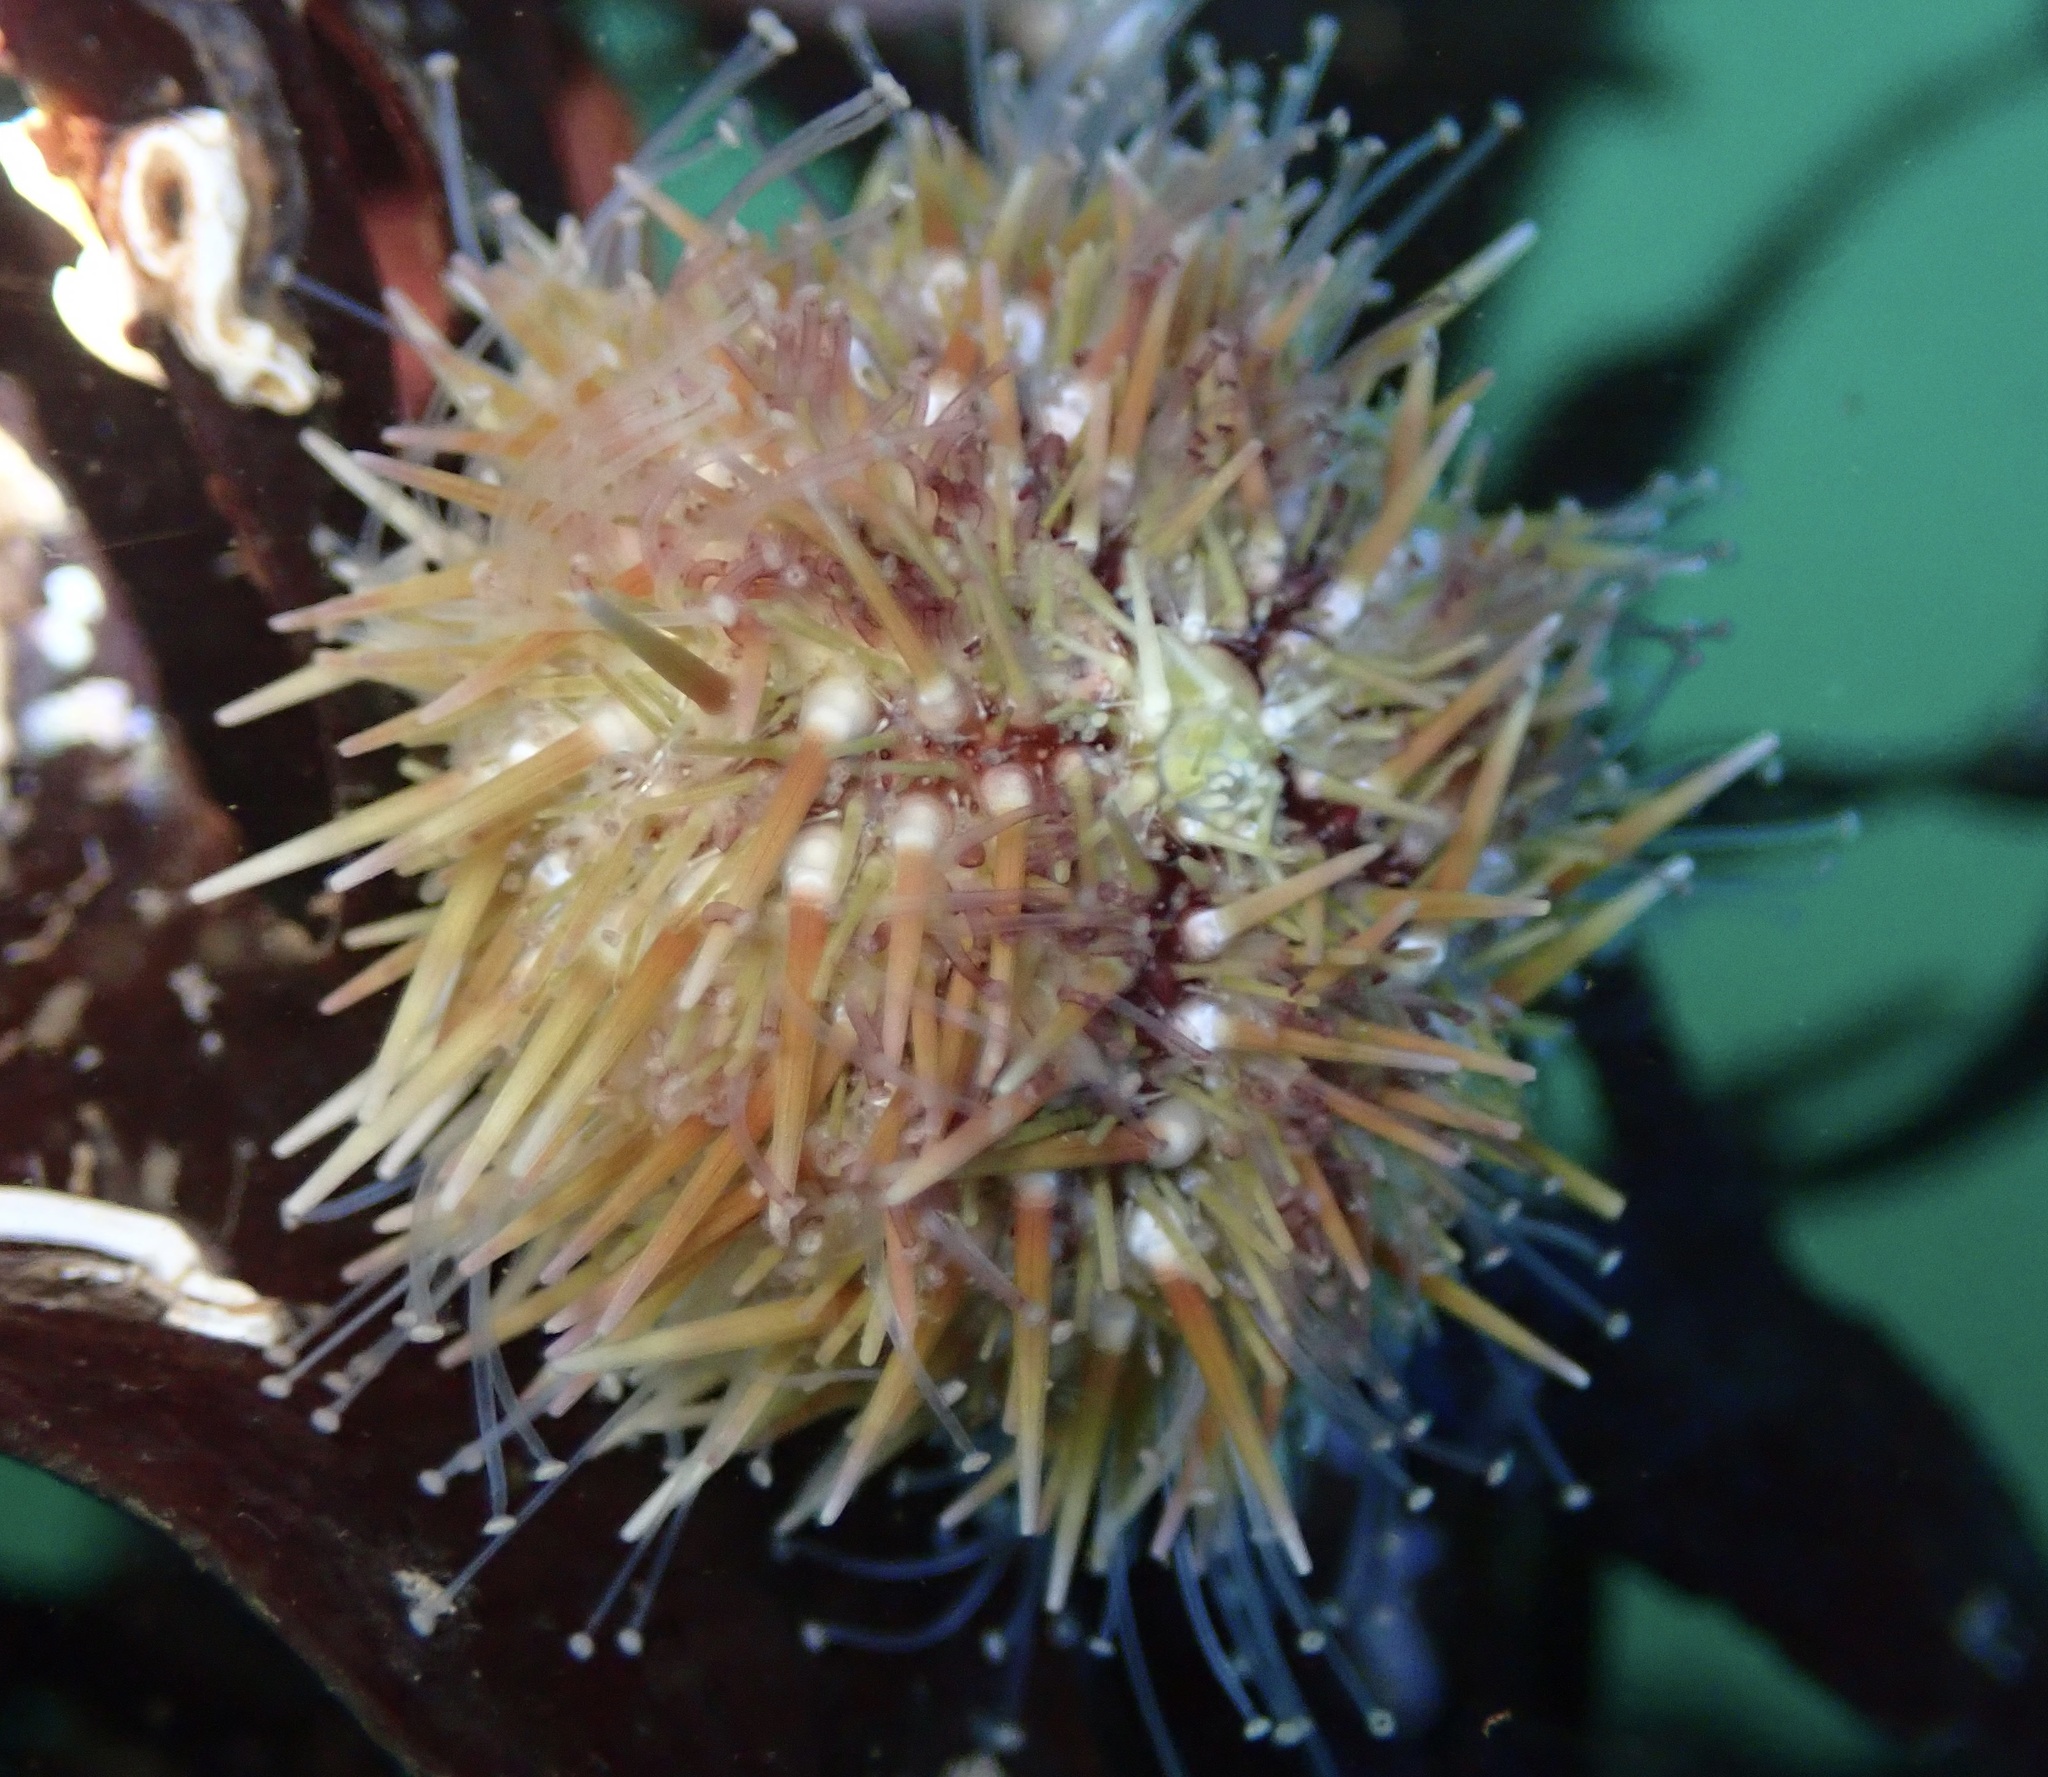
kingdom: Animalia
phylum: Echinodermata
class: Echinoidea
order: Camarodonta
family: Strongylocentrotidae
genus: Strongylocentrotus
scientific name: Strongylocentrotus droebachiensis
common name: Northern sea urchin
